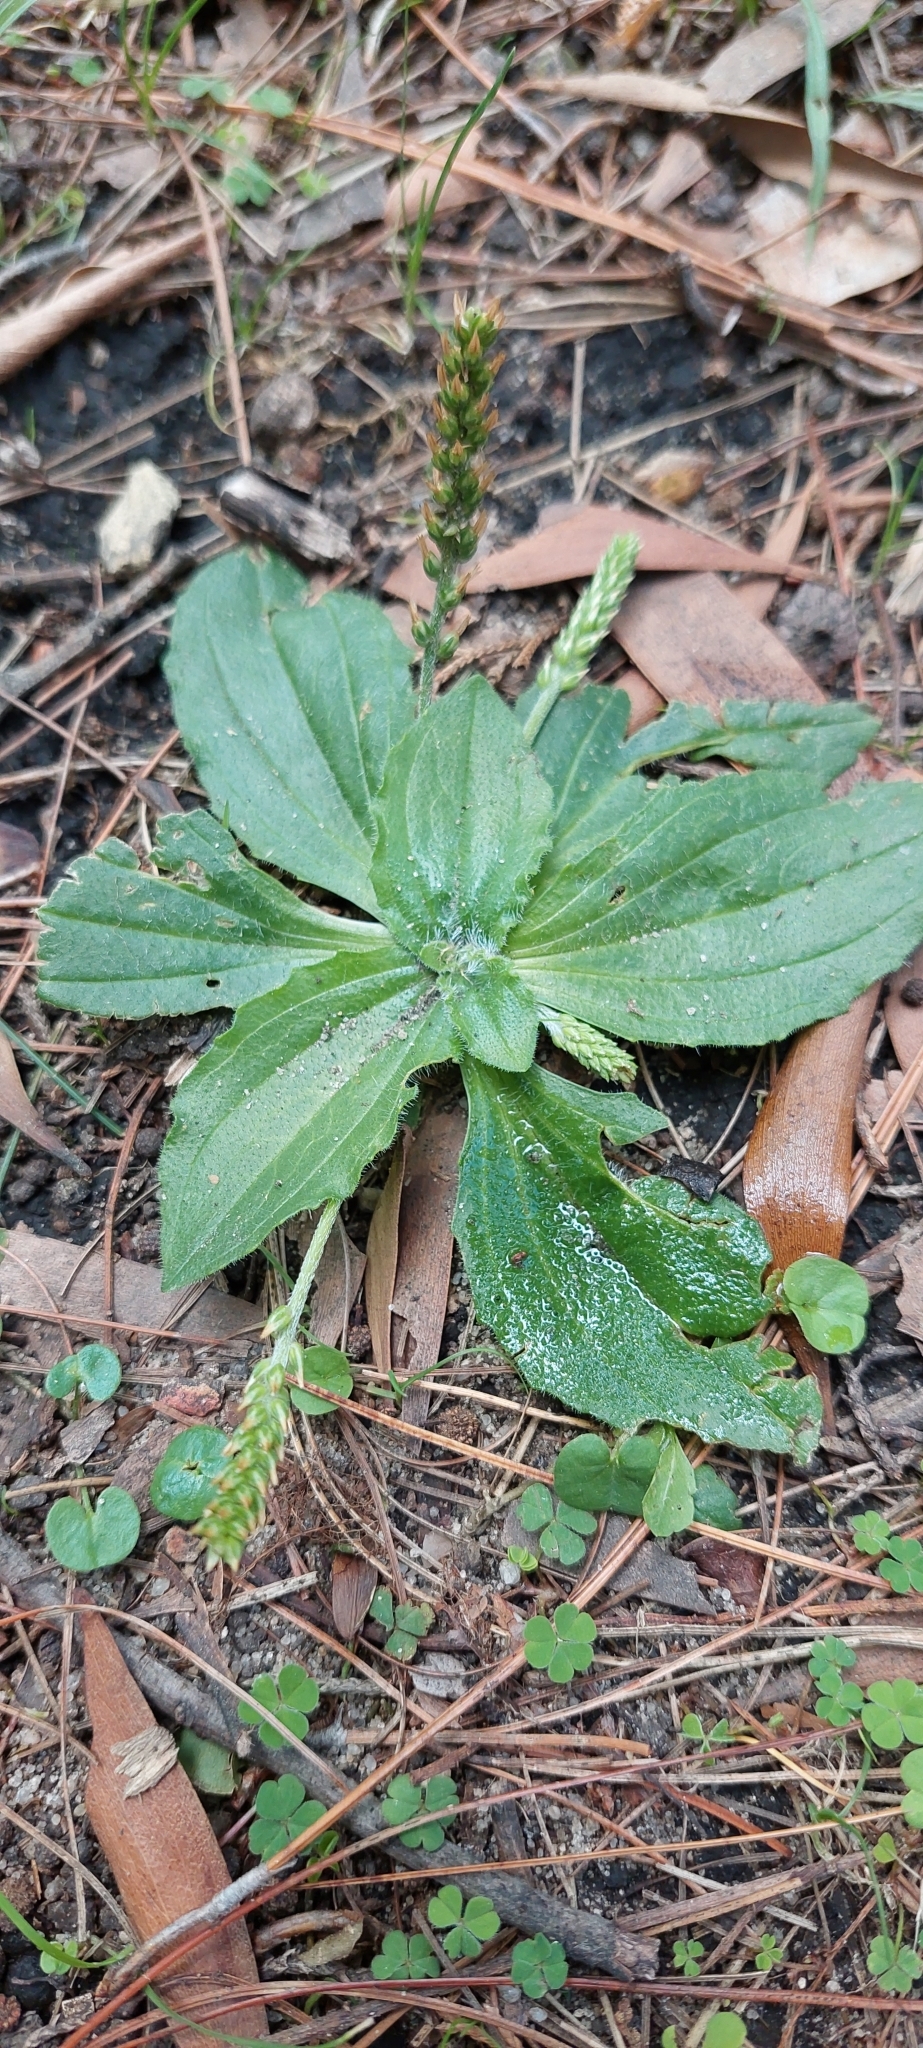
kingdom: Plantae
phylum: Tracheophyta
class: Magnoliopsida
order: Lamiales
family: Plantaginaceae
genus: Plantago
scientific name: Plantago major
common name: Common plantain
